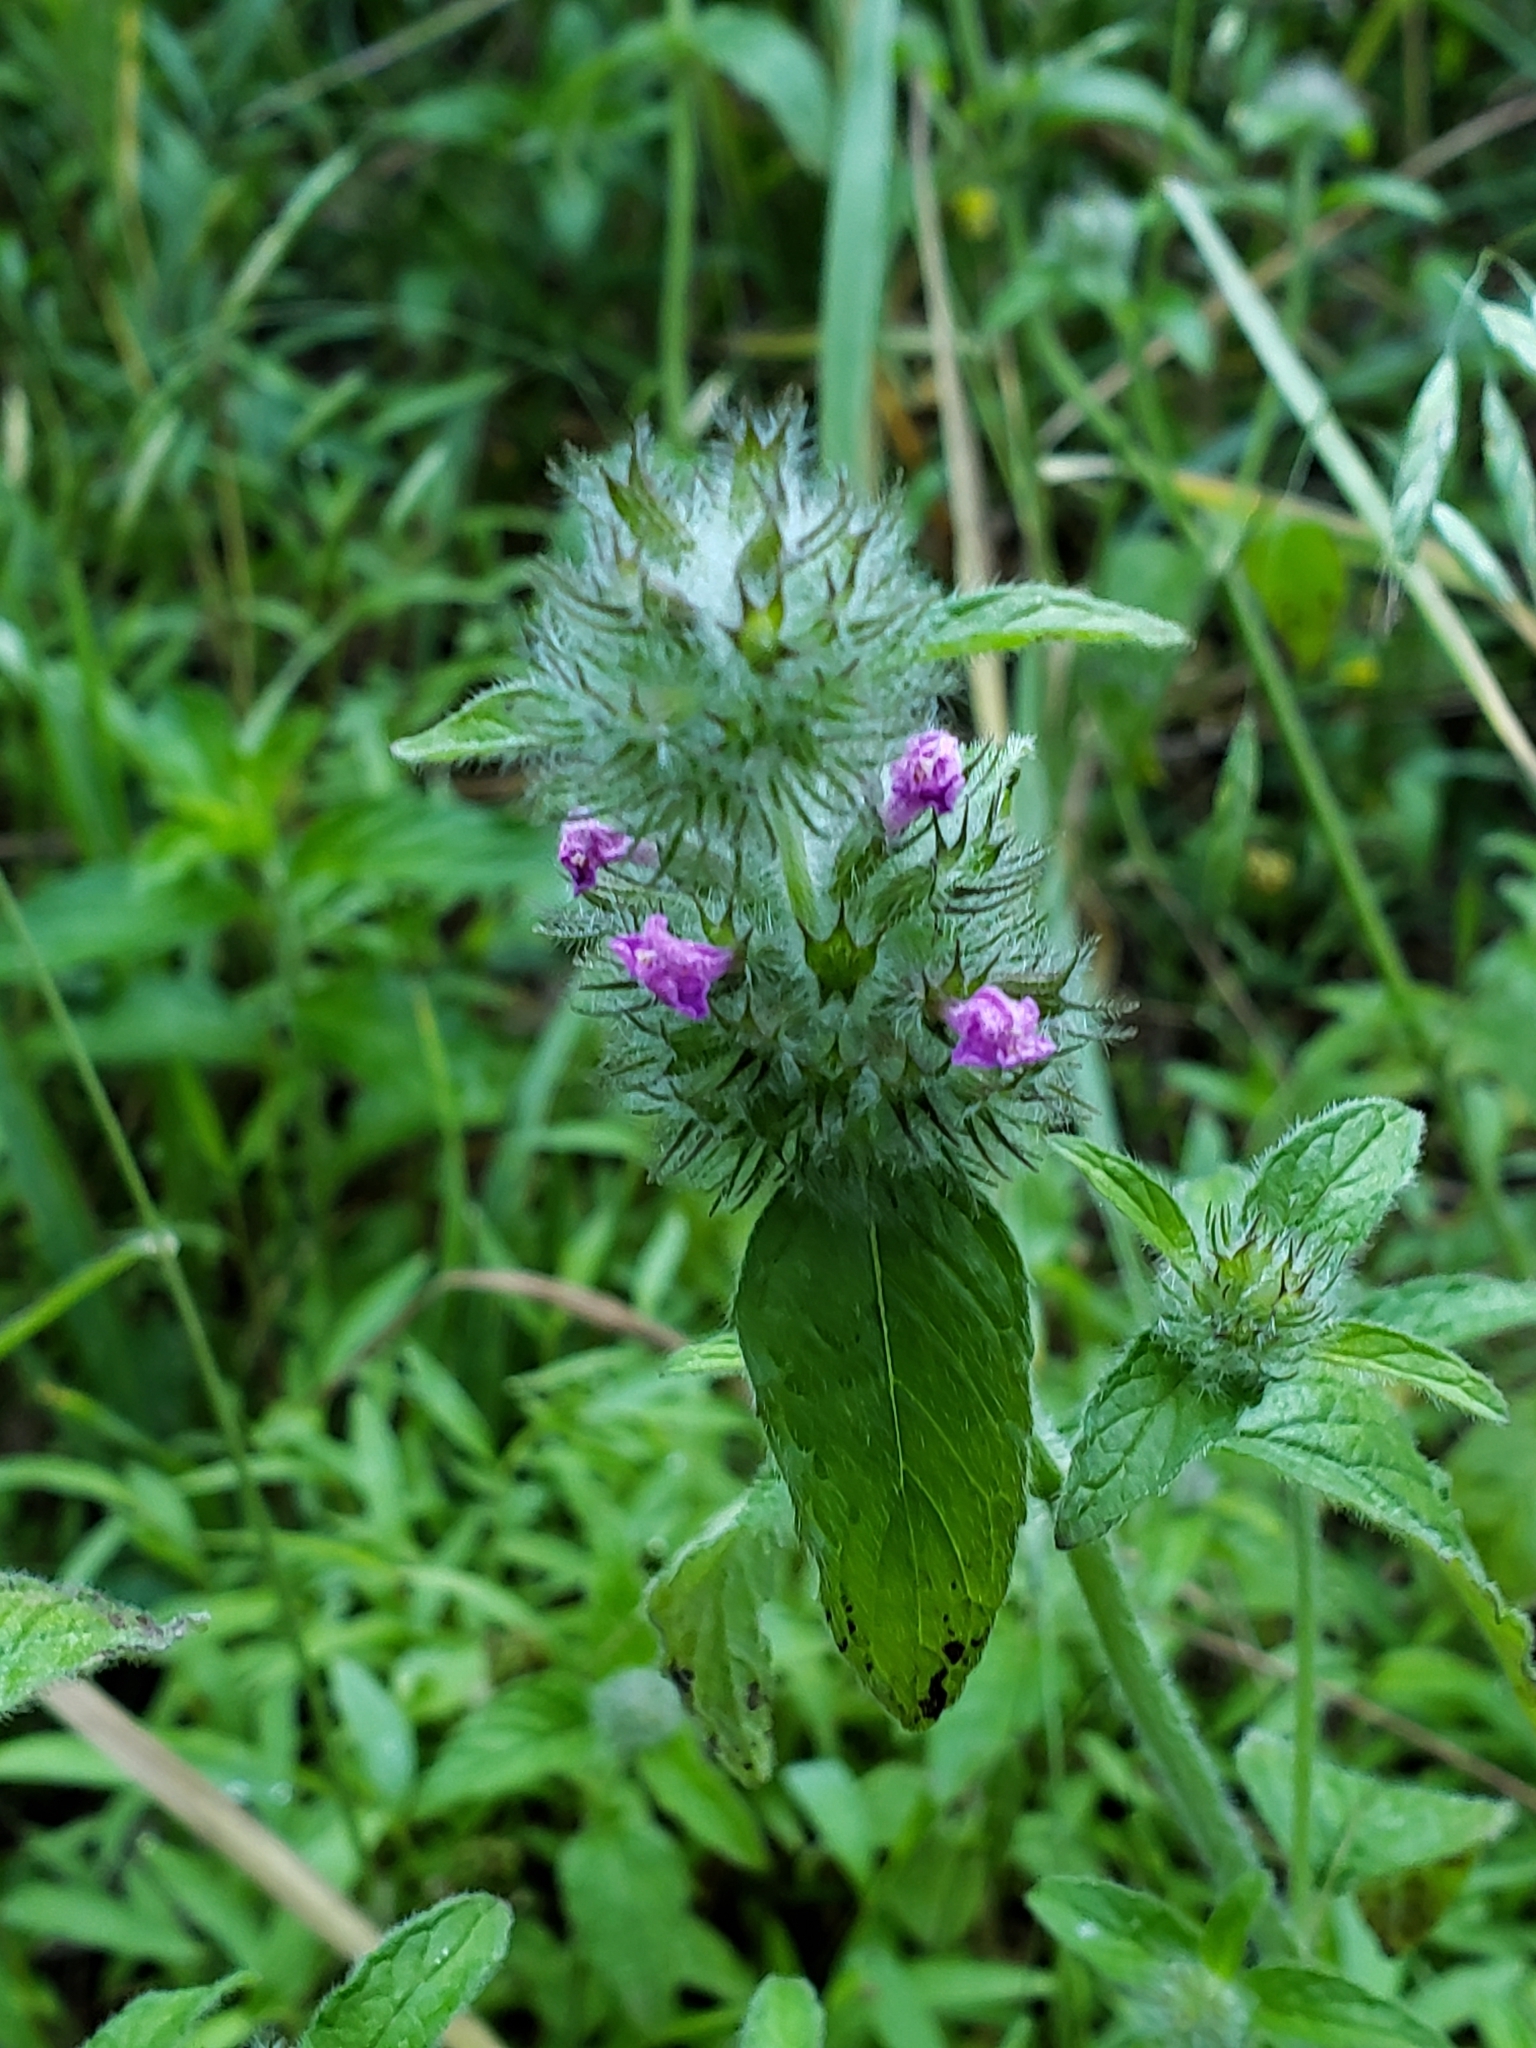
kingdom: Plantae
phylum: Tracheophyta
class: Magnoliopsida
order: Lamiales
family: Lamiaceae
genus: Clinopodium
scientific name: Clinopodium vulgare
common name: Wild basil
